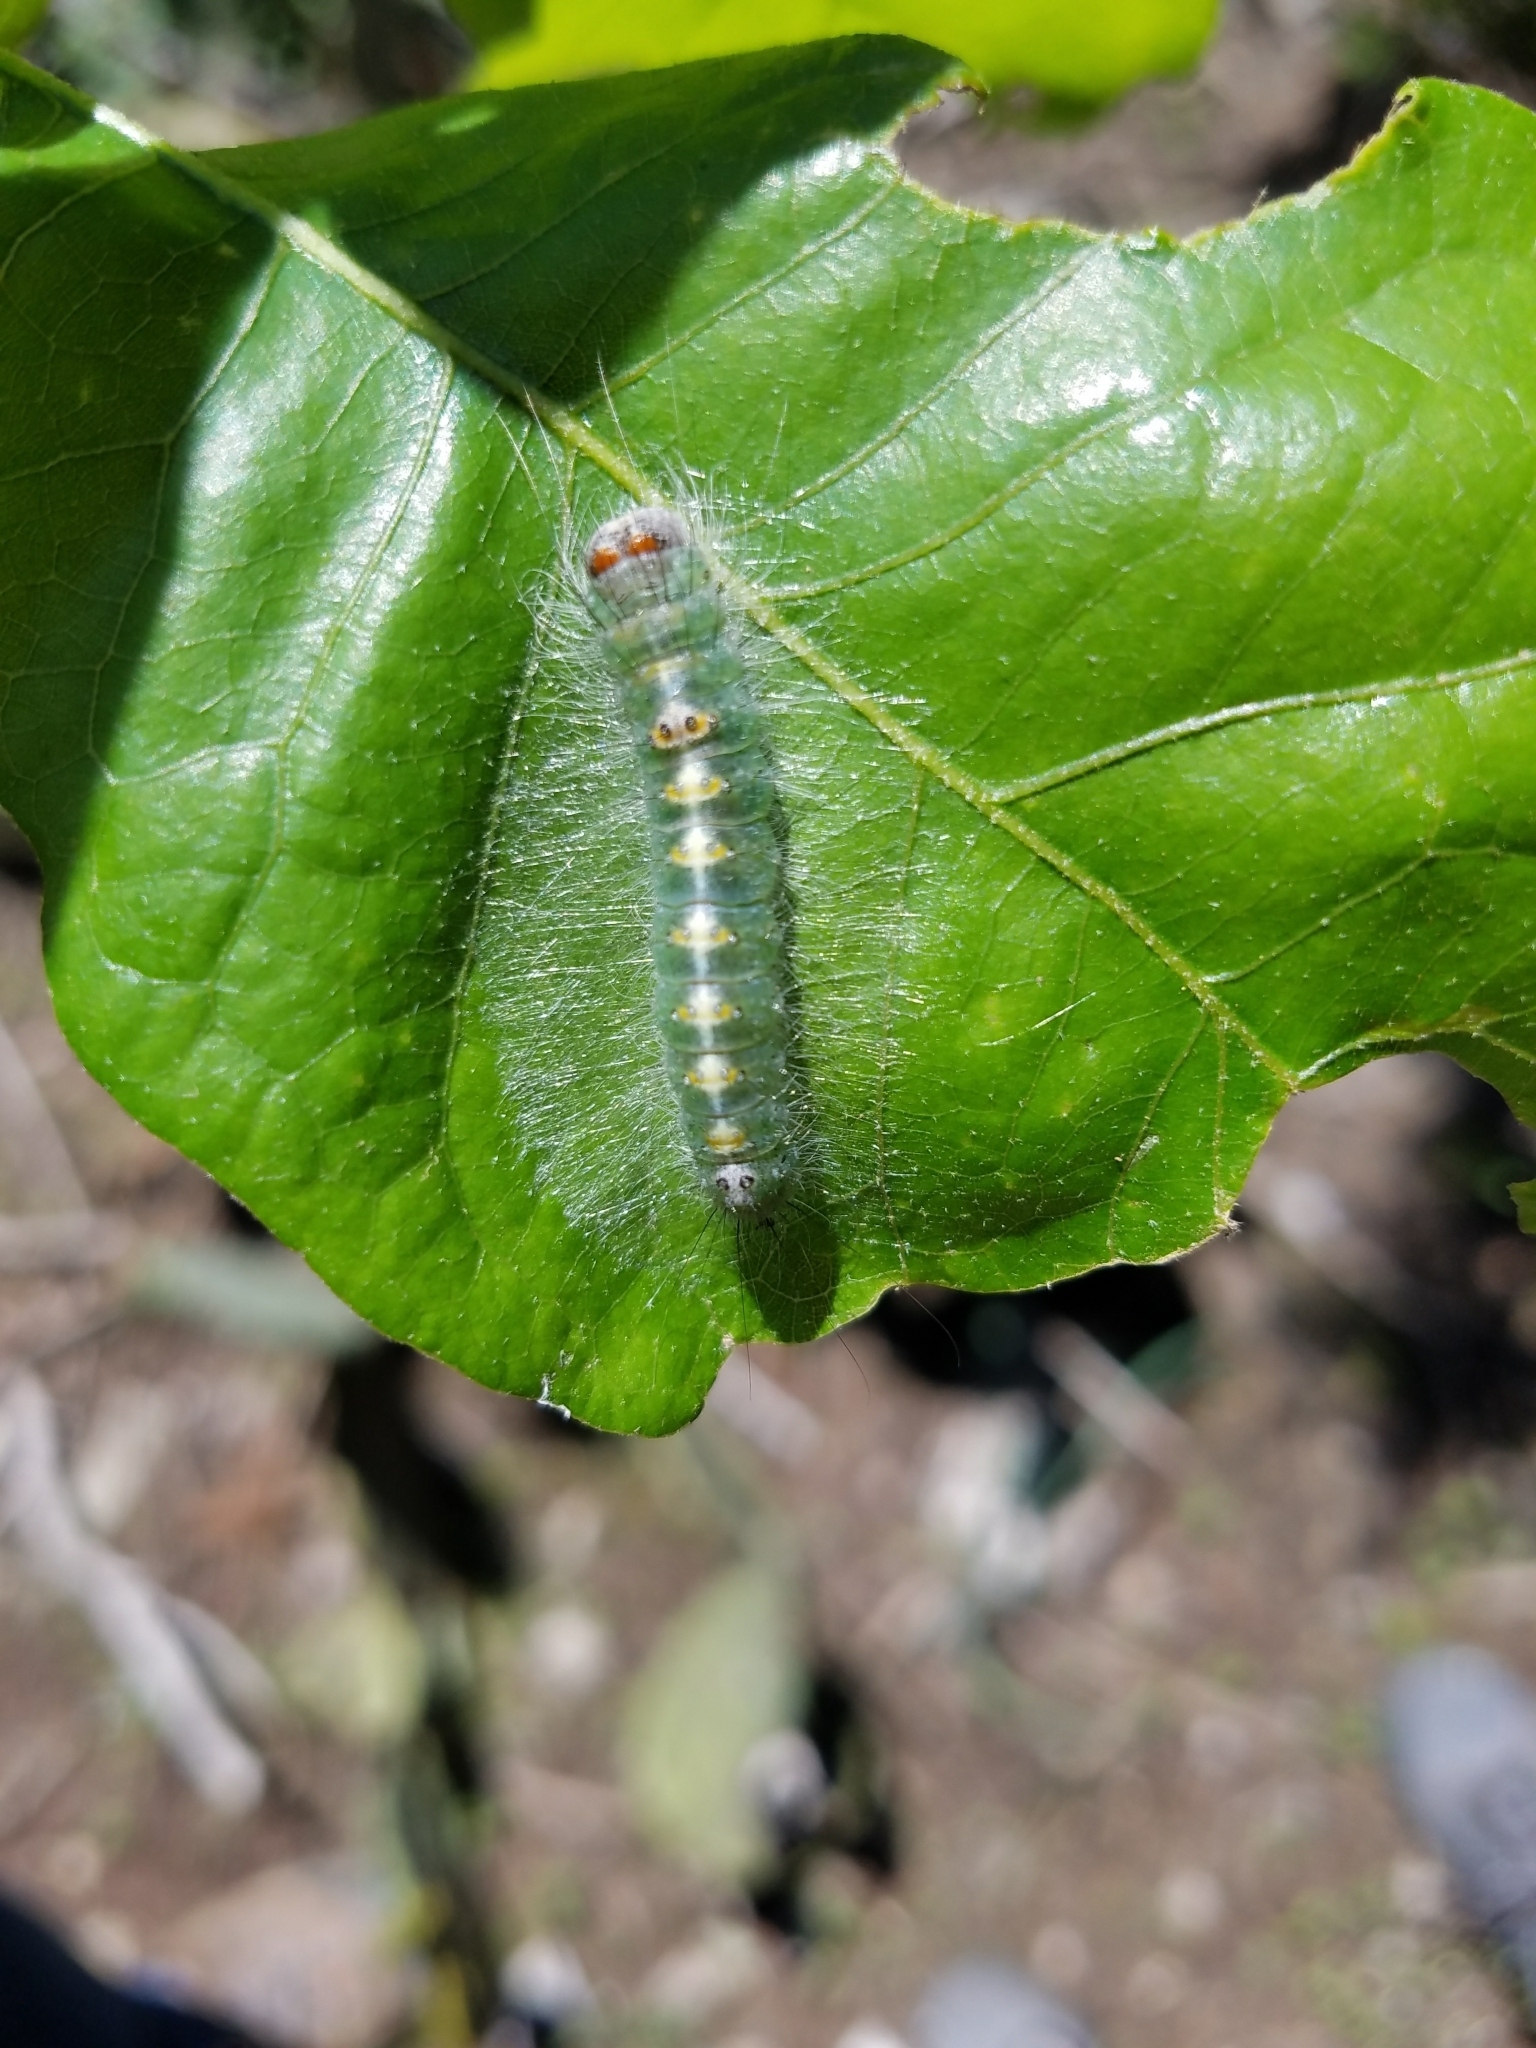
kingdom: Animalia
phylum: Arthropoda
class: Insecta
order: Lepidoptera
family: Noctuidae
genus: Acronicta
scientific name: Acronicta lobeliae
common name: Greater oak dagger
